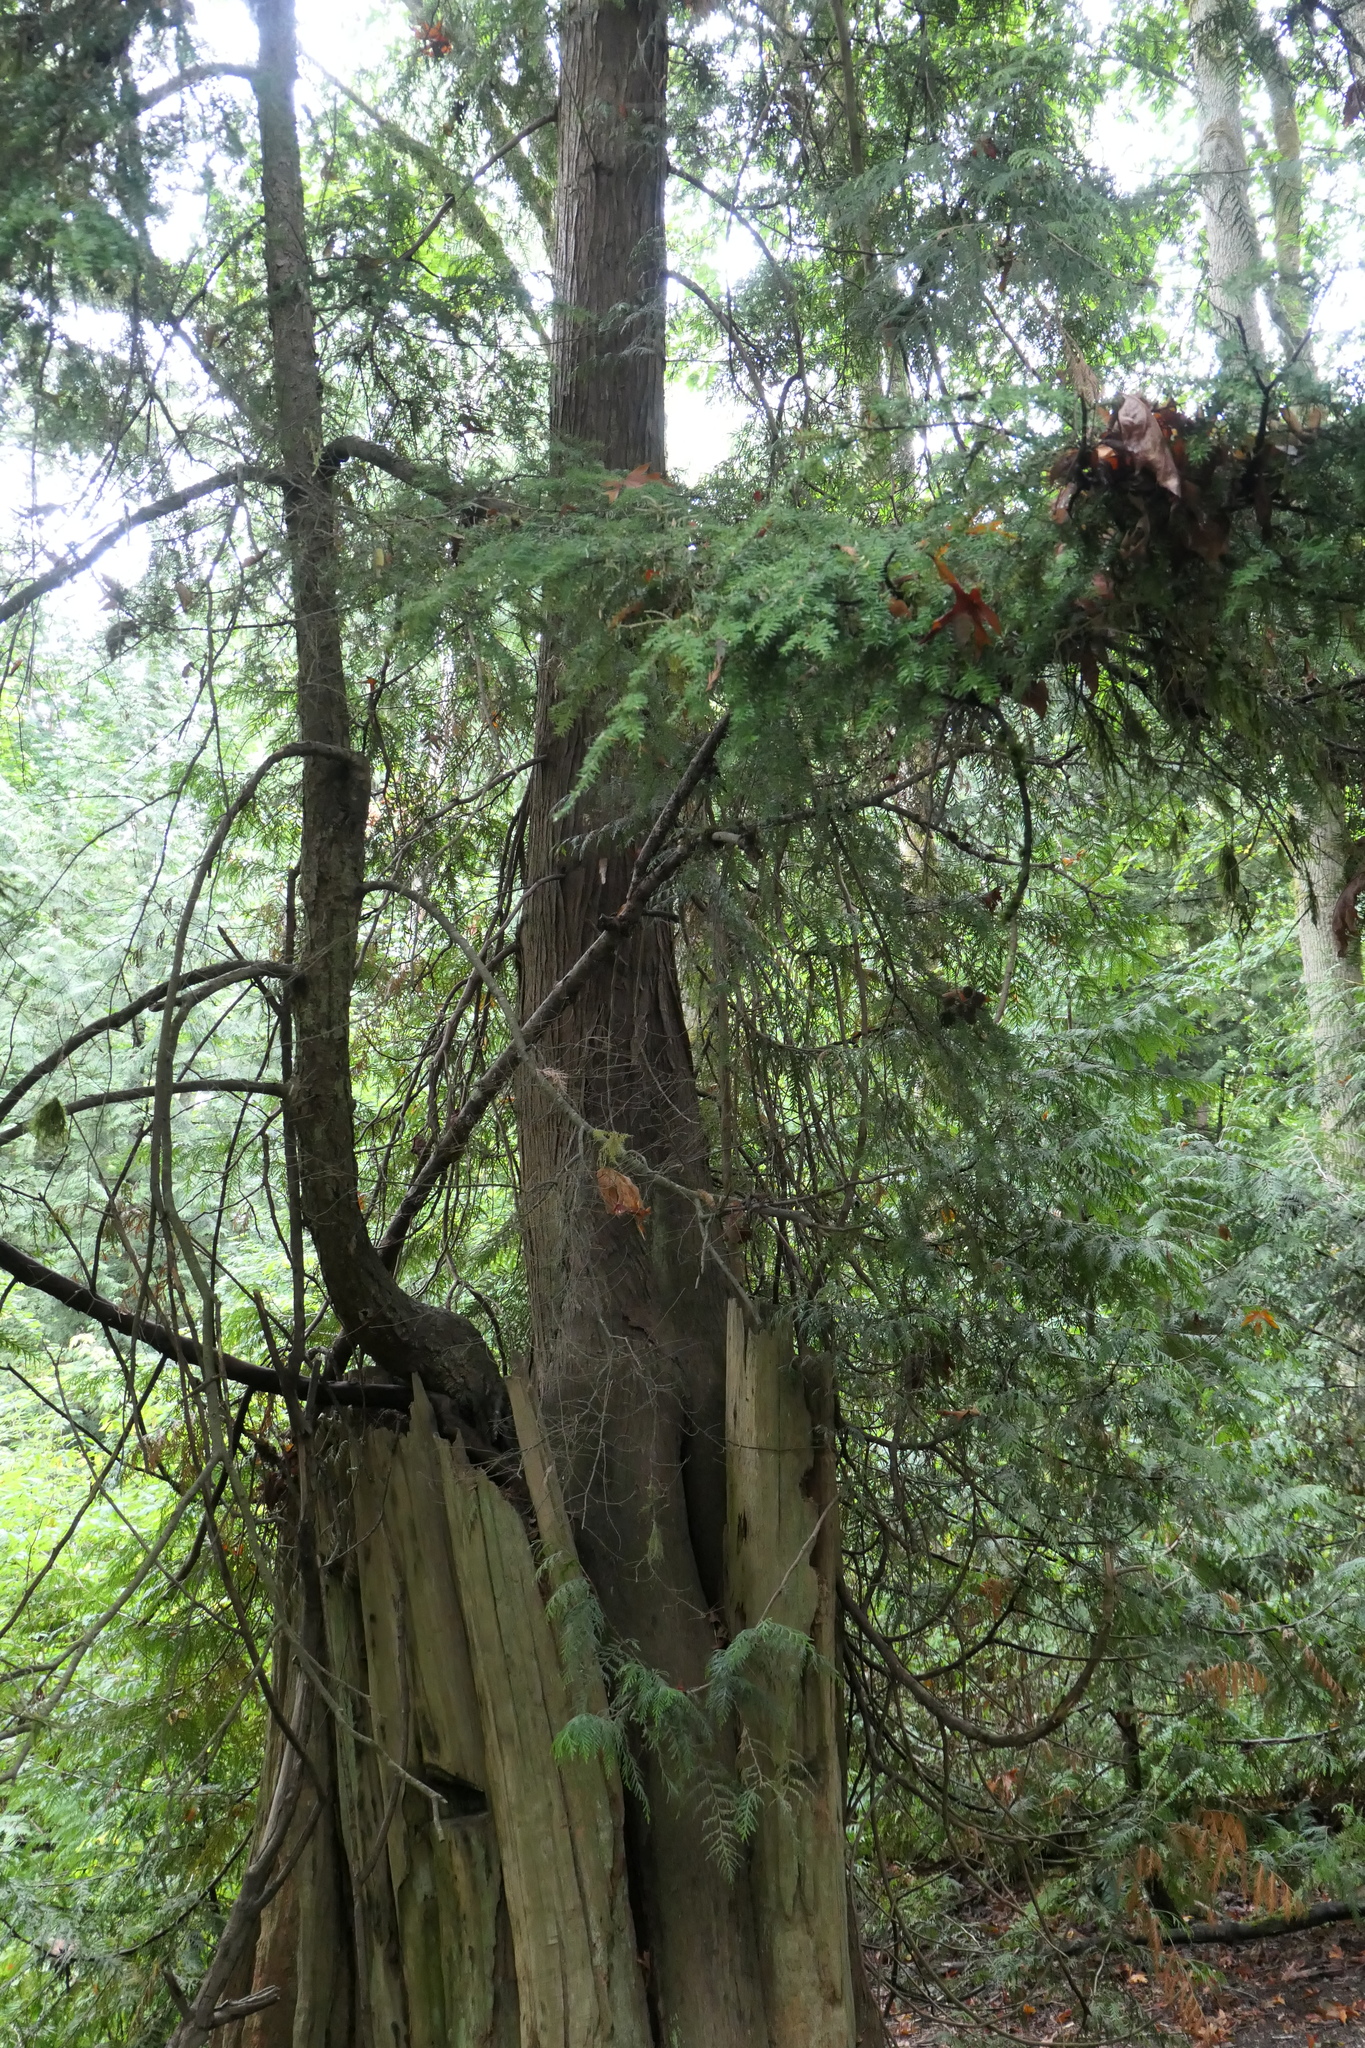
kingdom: Plantae
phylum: Tracheophyta
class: Pinopsida
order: Pinales
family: Pinaceae
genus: Tsuga
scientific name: Tsuga heterophylla
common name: Western hemlock
